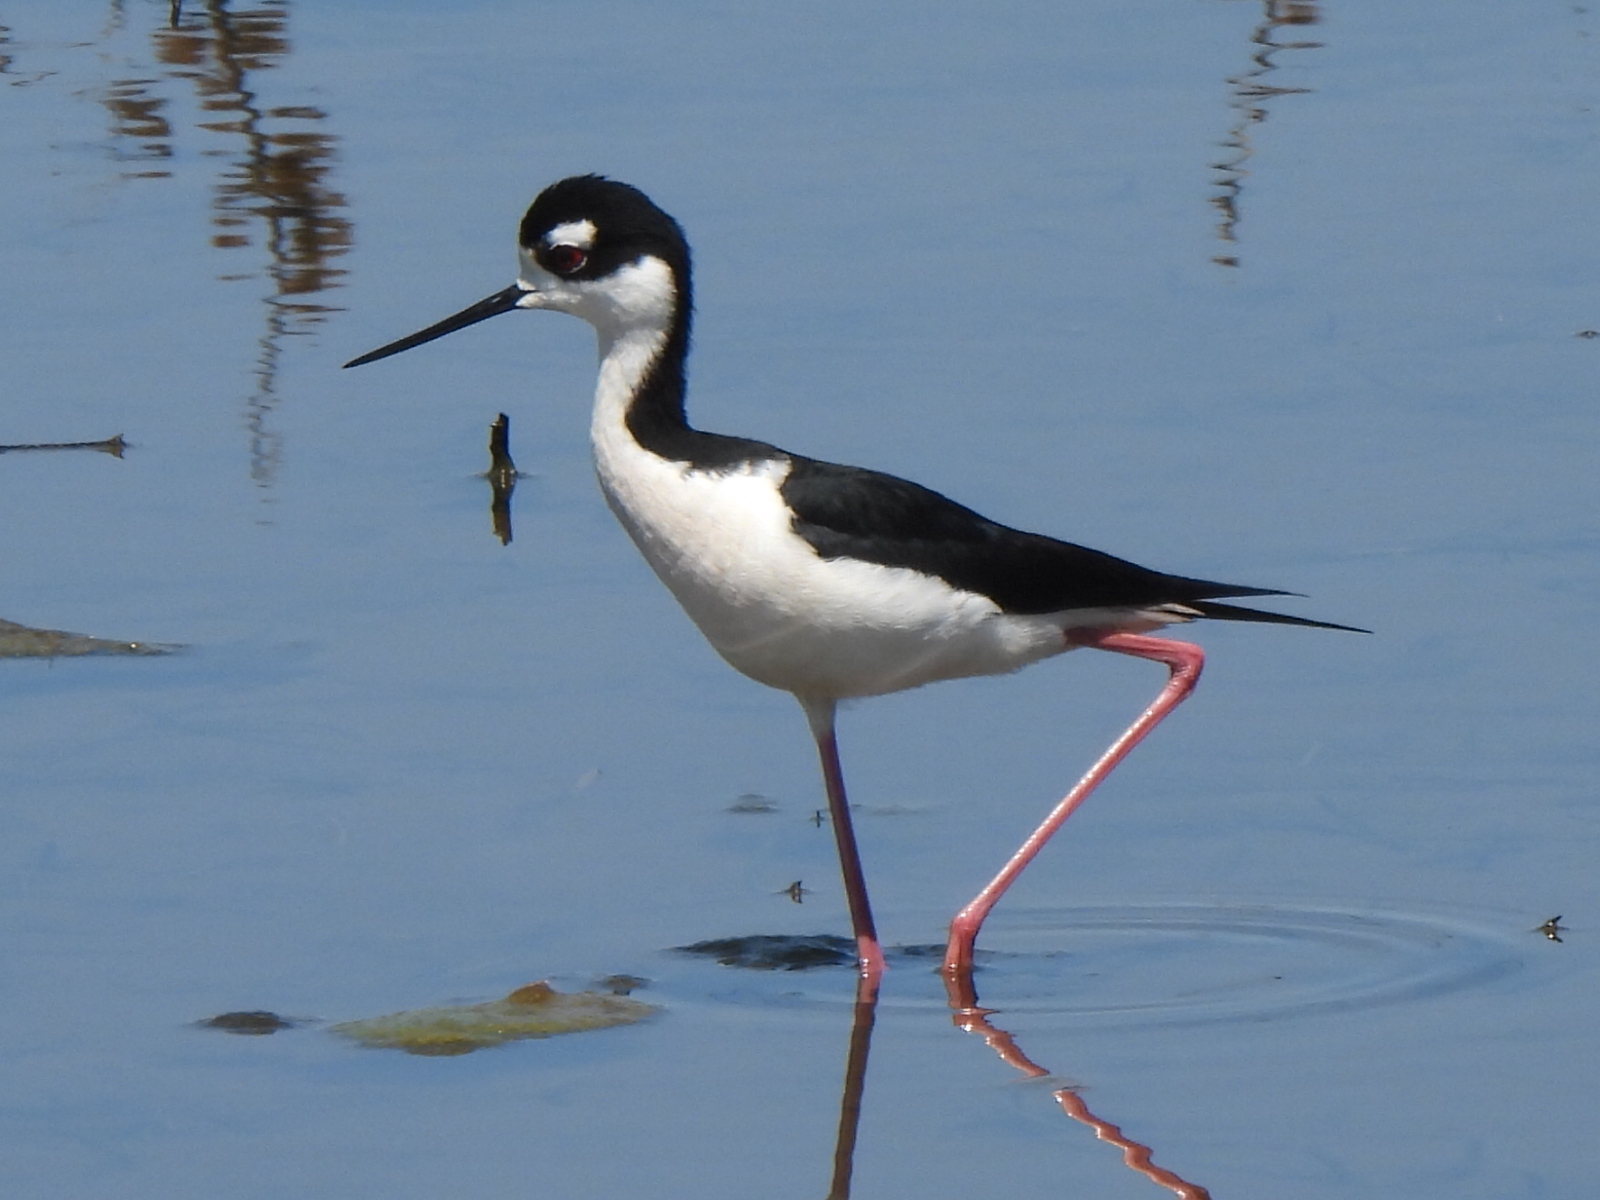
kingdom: Animalia
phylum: Chordata
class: Aves
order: Charadriiformes
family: Recurvirostridae
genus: Himantopus
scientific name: Himantopus mexicanus
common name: Black-necked stilt
